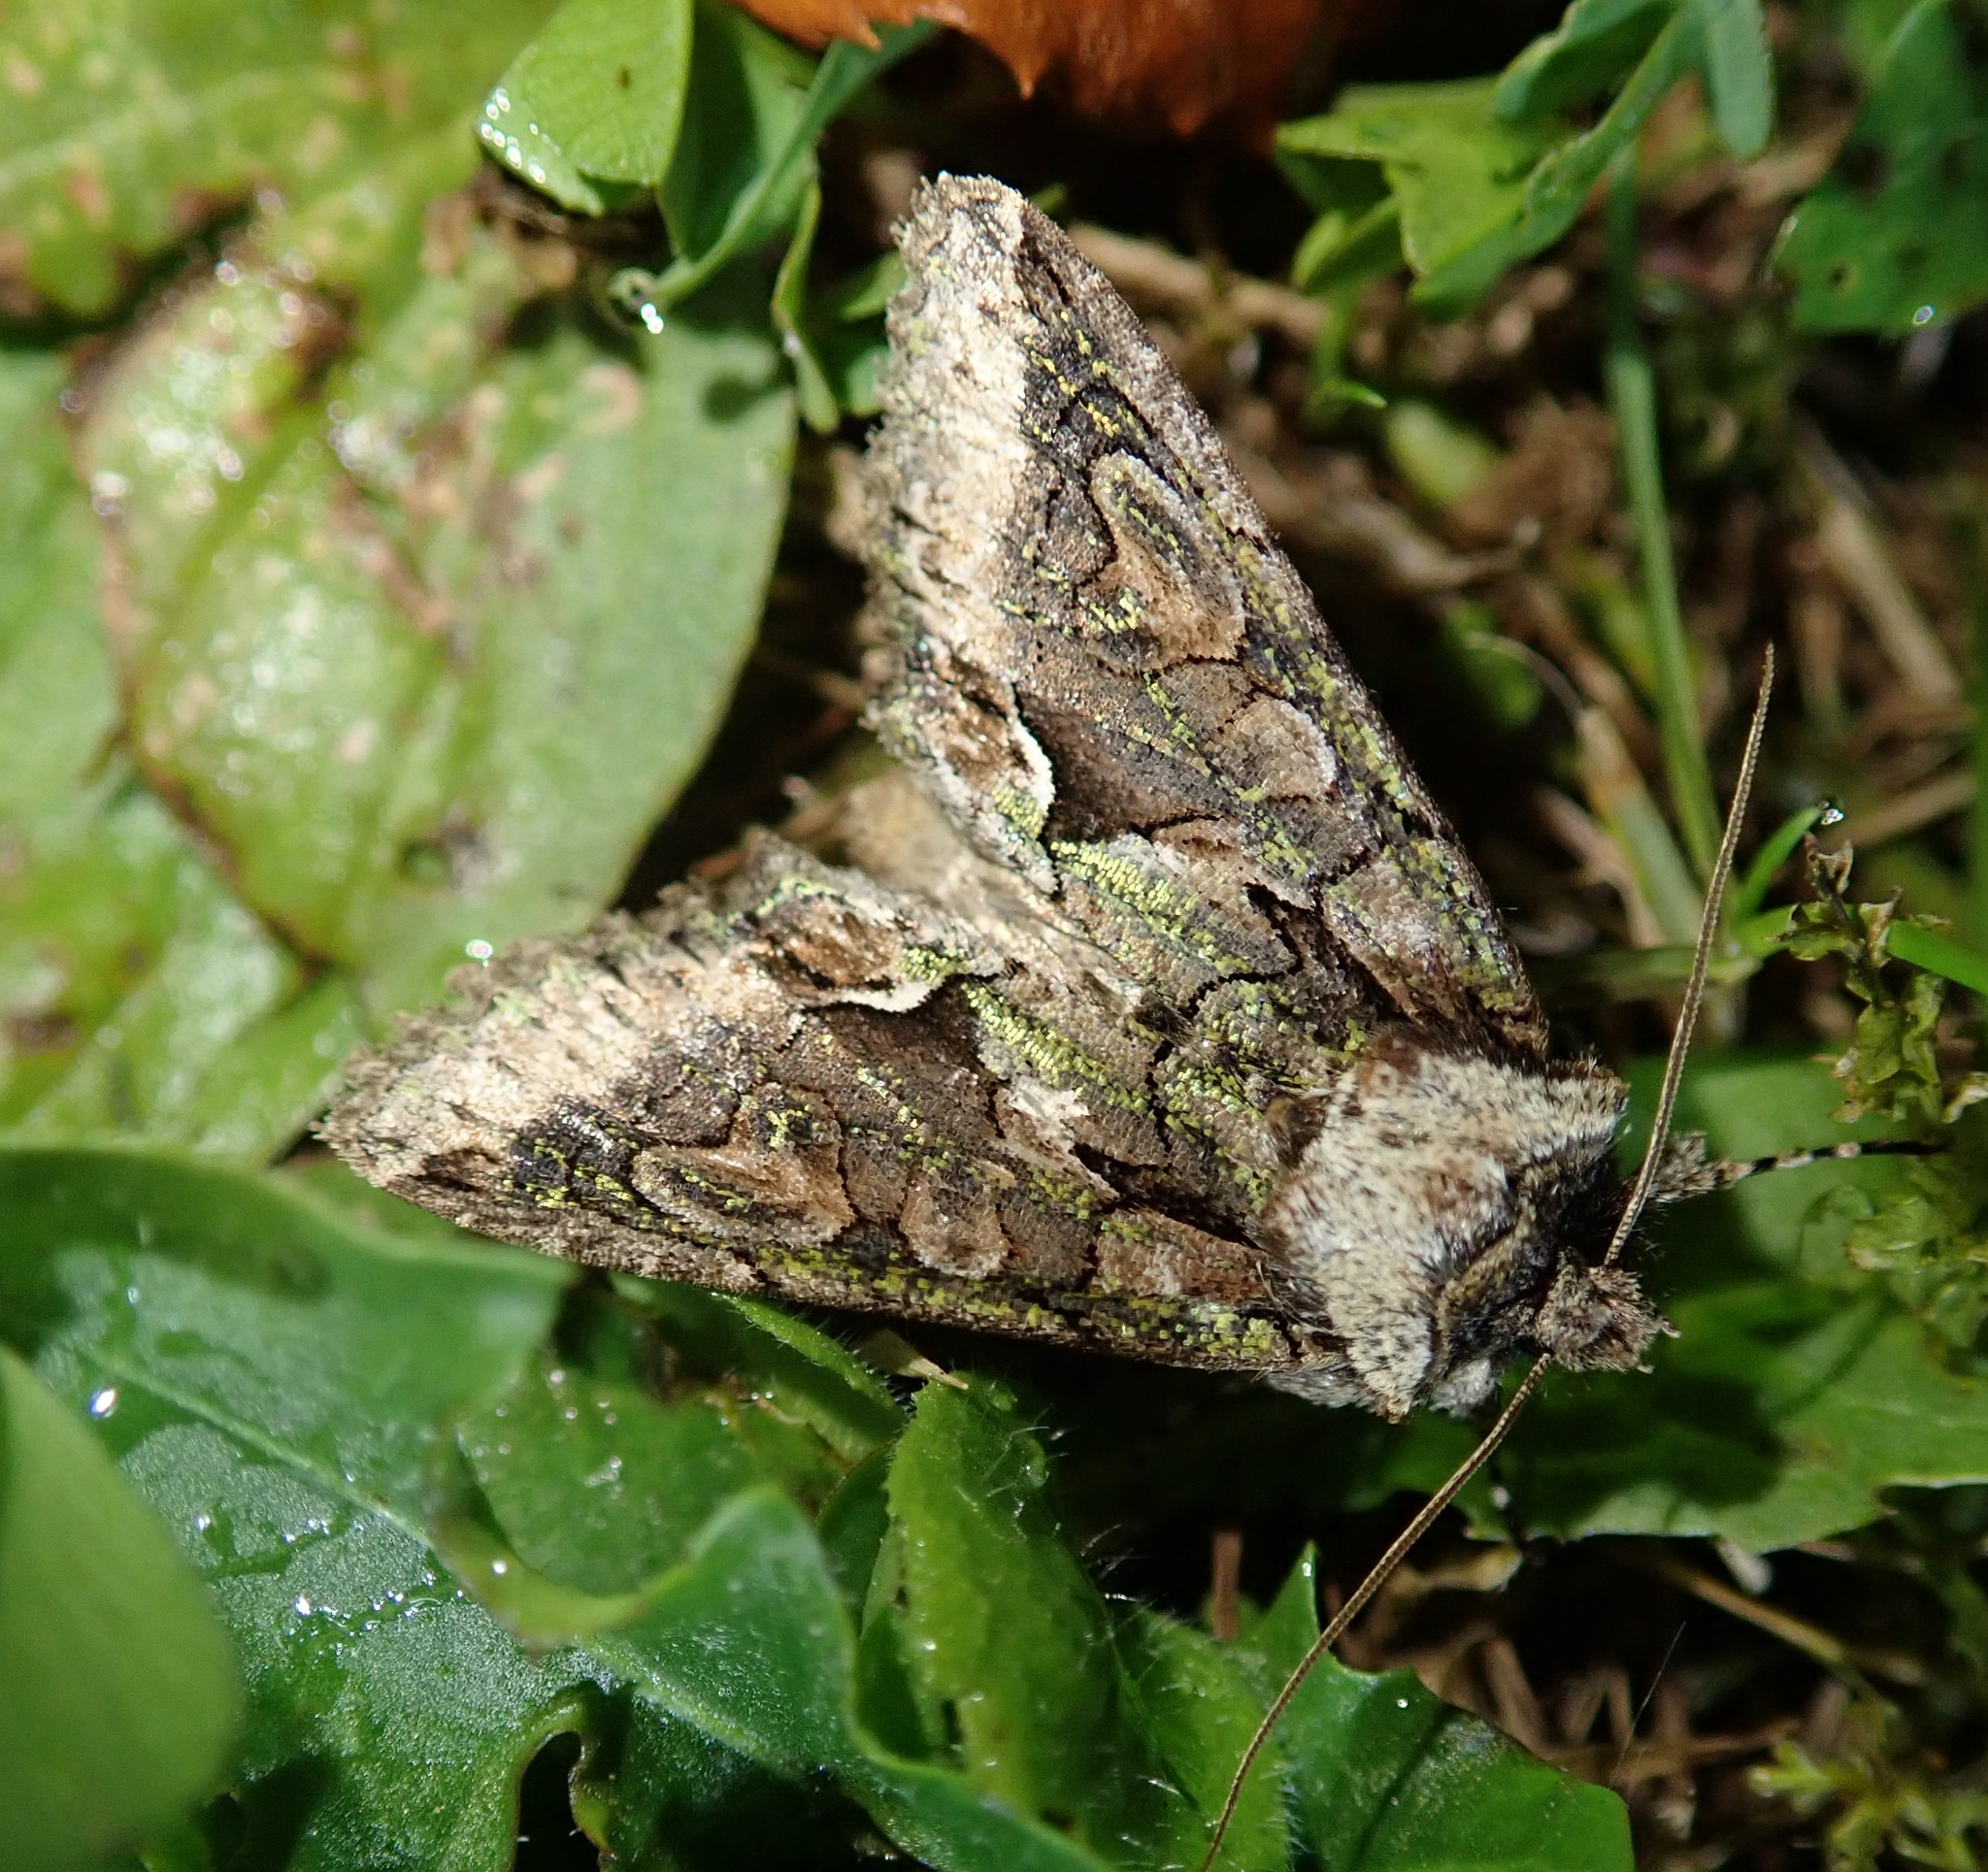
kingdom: Animalia
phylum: Arthropoda
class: Insecta
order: Lepidoptera
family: Noctuidae
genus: Allophyes
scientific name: Allophyes oxyacanthae
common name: Green-brindled crescent
